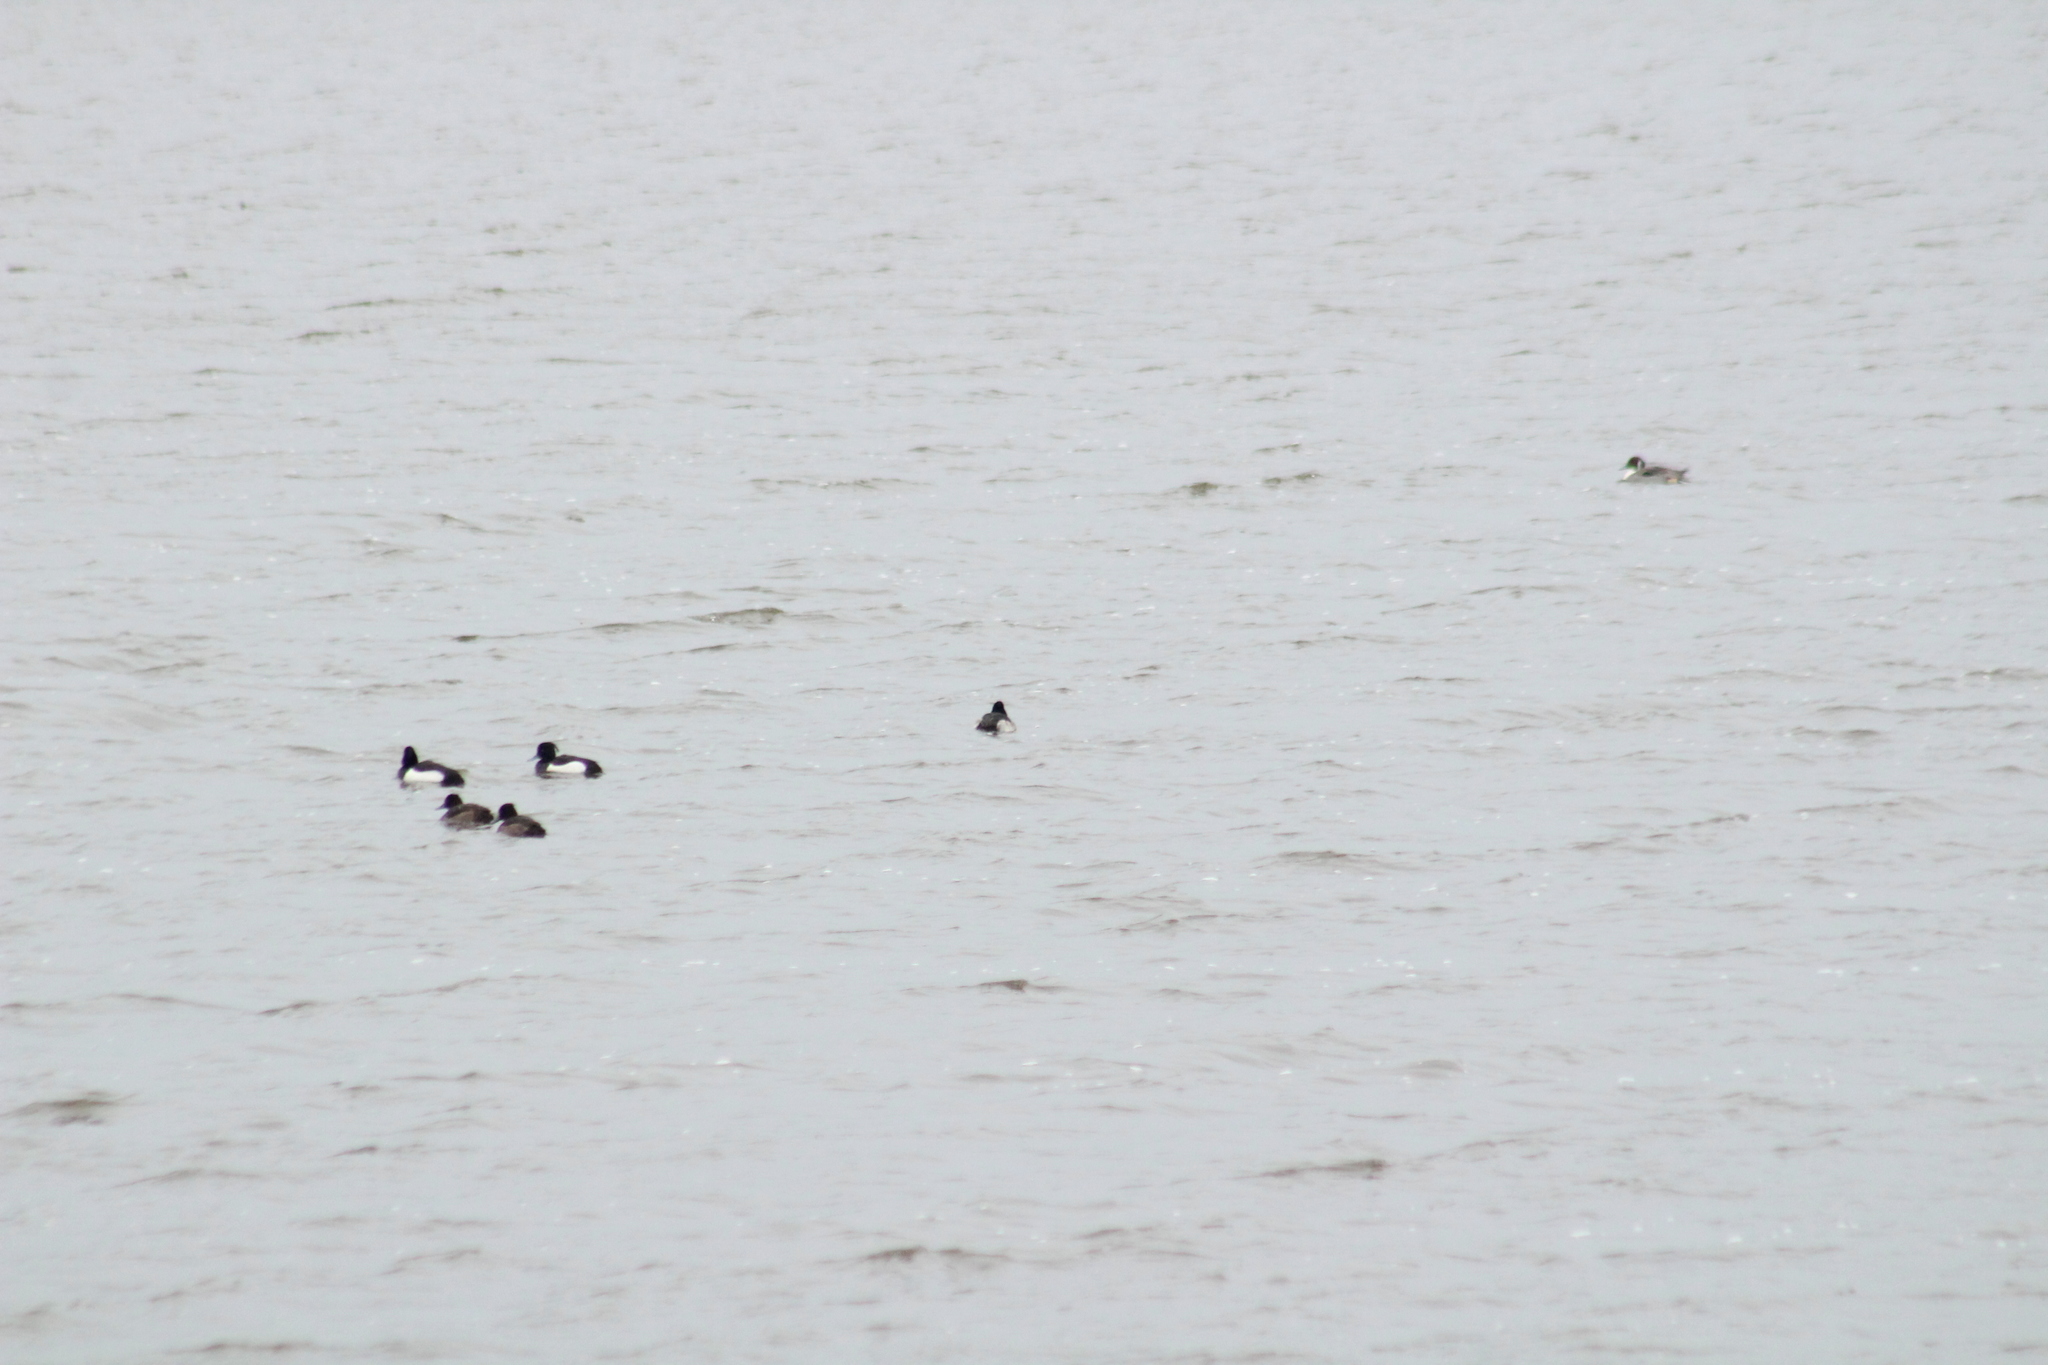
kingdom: Animalia
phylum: Chordata
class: Aves
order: Anseriformes
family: Anatidae
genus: Aythya
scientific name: Aythya fuligula
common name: Tufted duck
